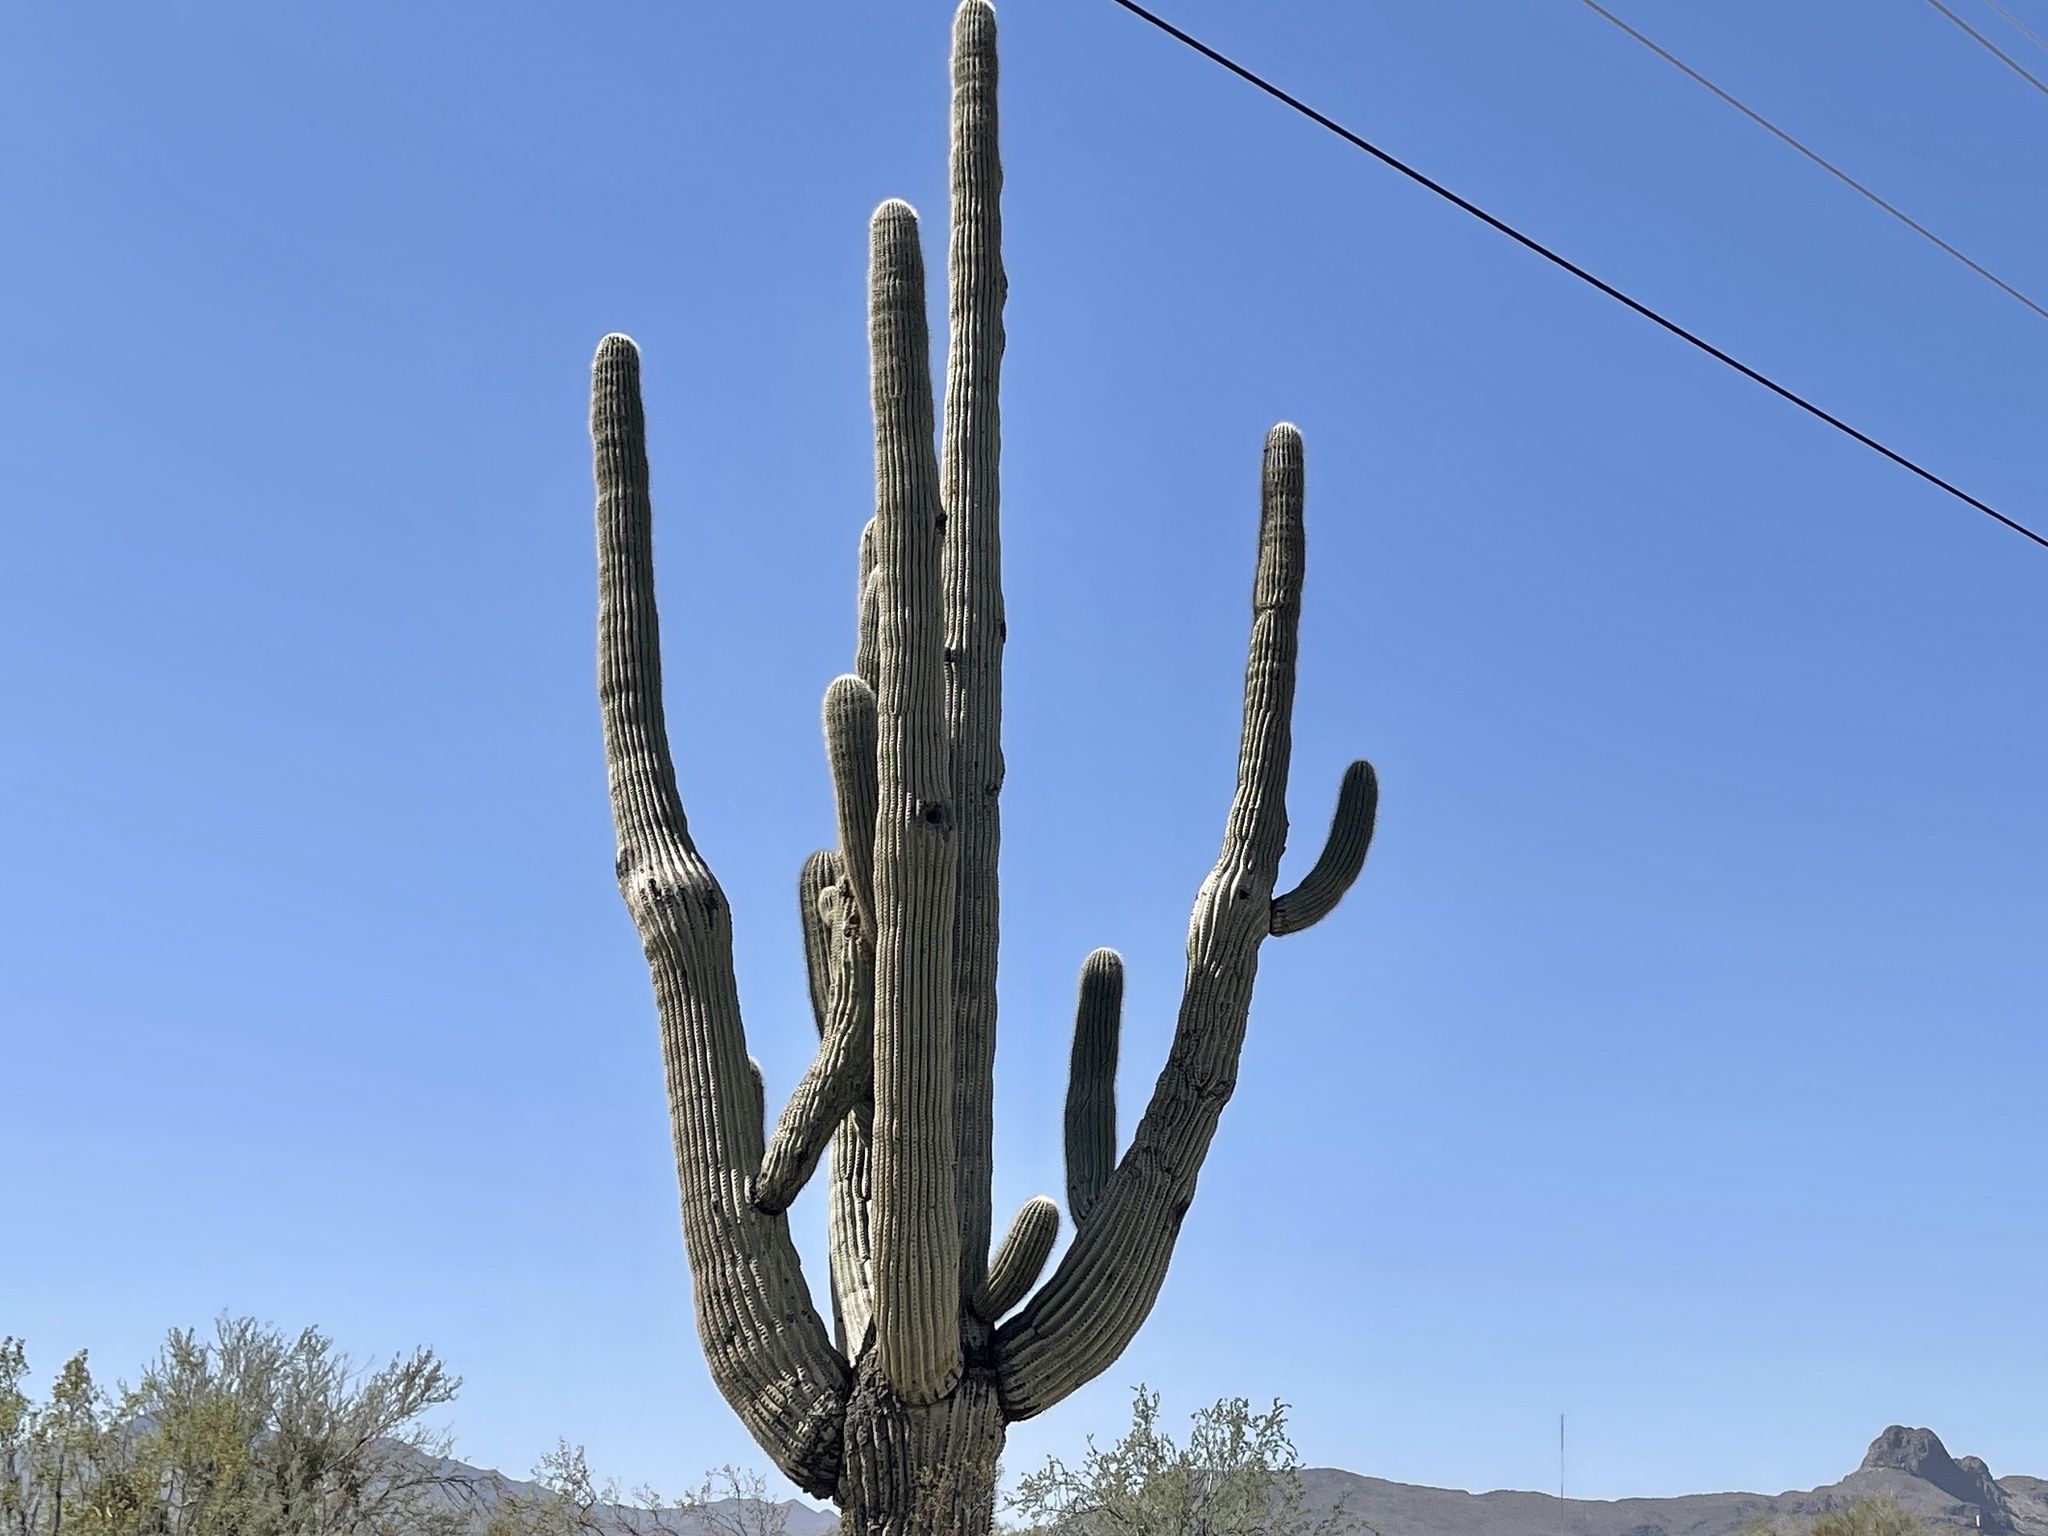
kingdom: Plantae
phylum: Tracheophyta
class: Magnoliopsida
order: Caryophyllales
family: Cactaceae
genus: Carnegiea
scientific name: Carnegiea gigantea
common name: Saguaro
